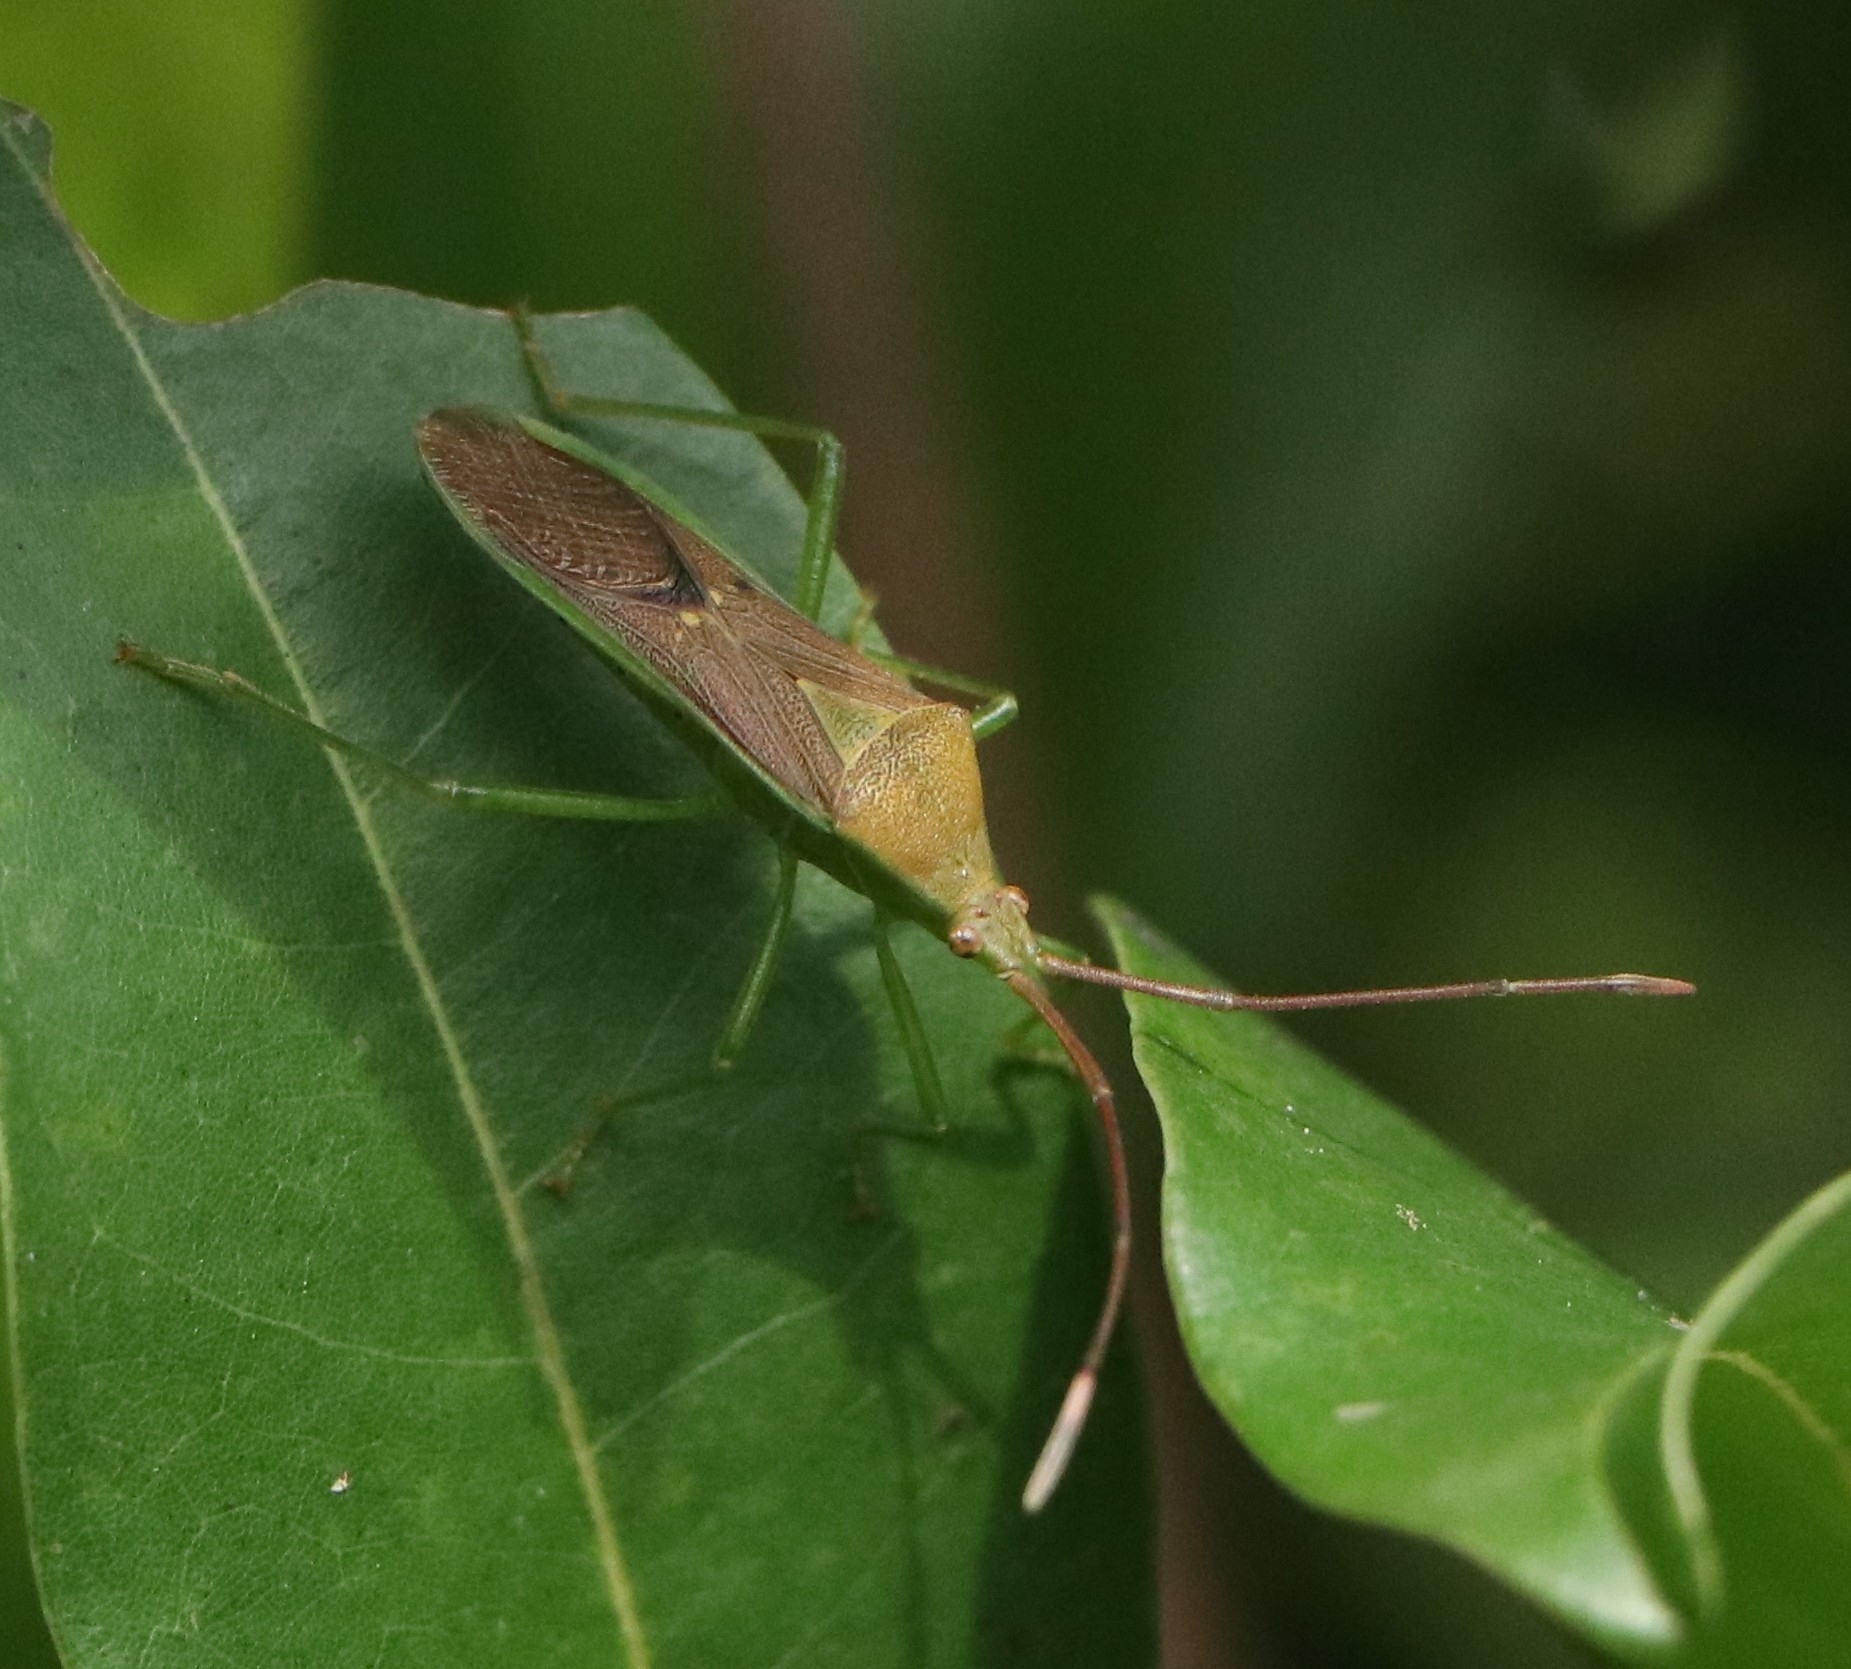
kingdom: Animalia
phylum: Arthropoda
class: Insecta
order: Hemiptera
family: Coreidae
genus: Homoeocerus
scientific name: Homoeocerus relatus
